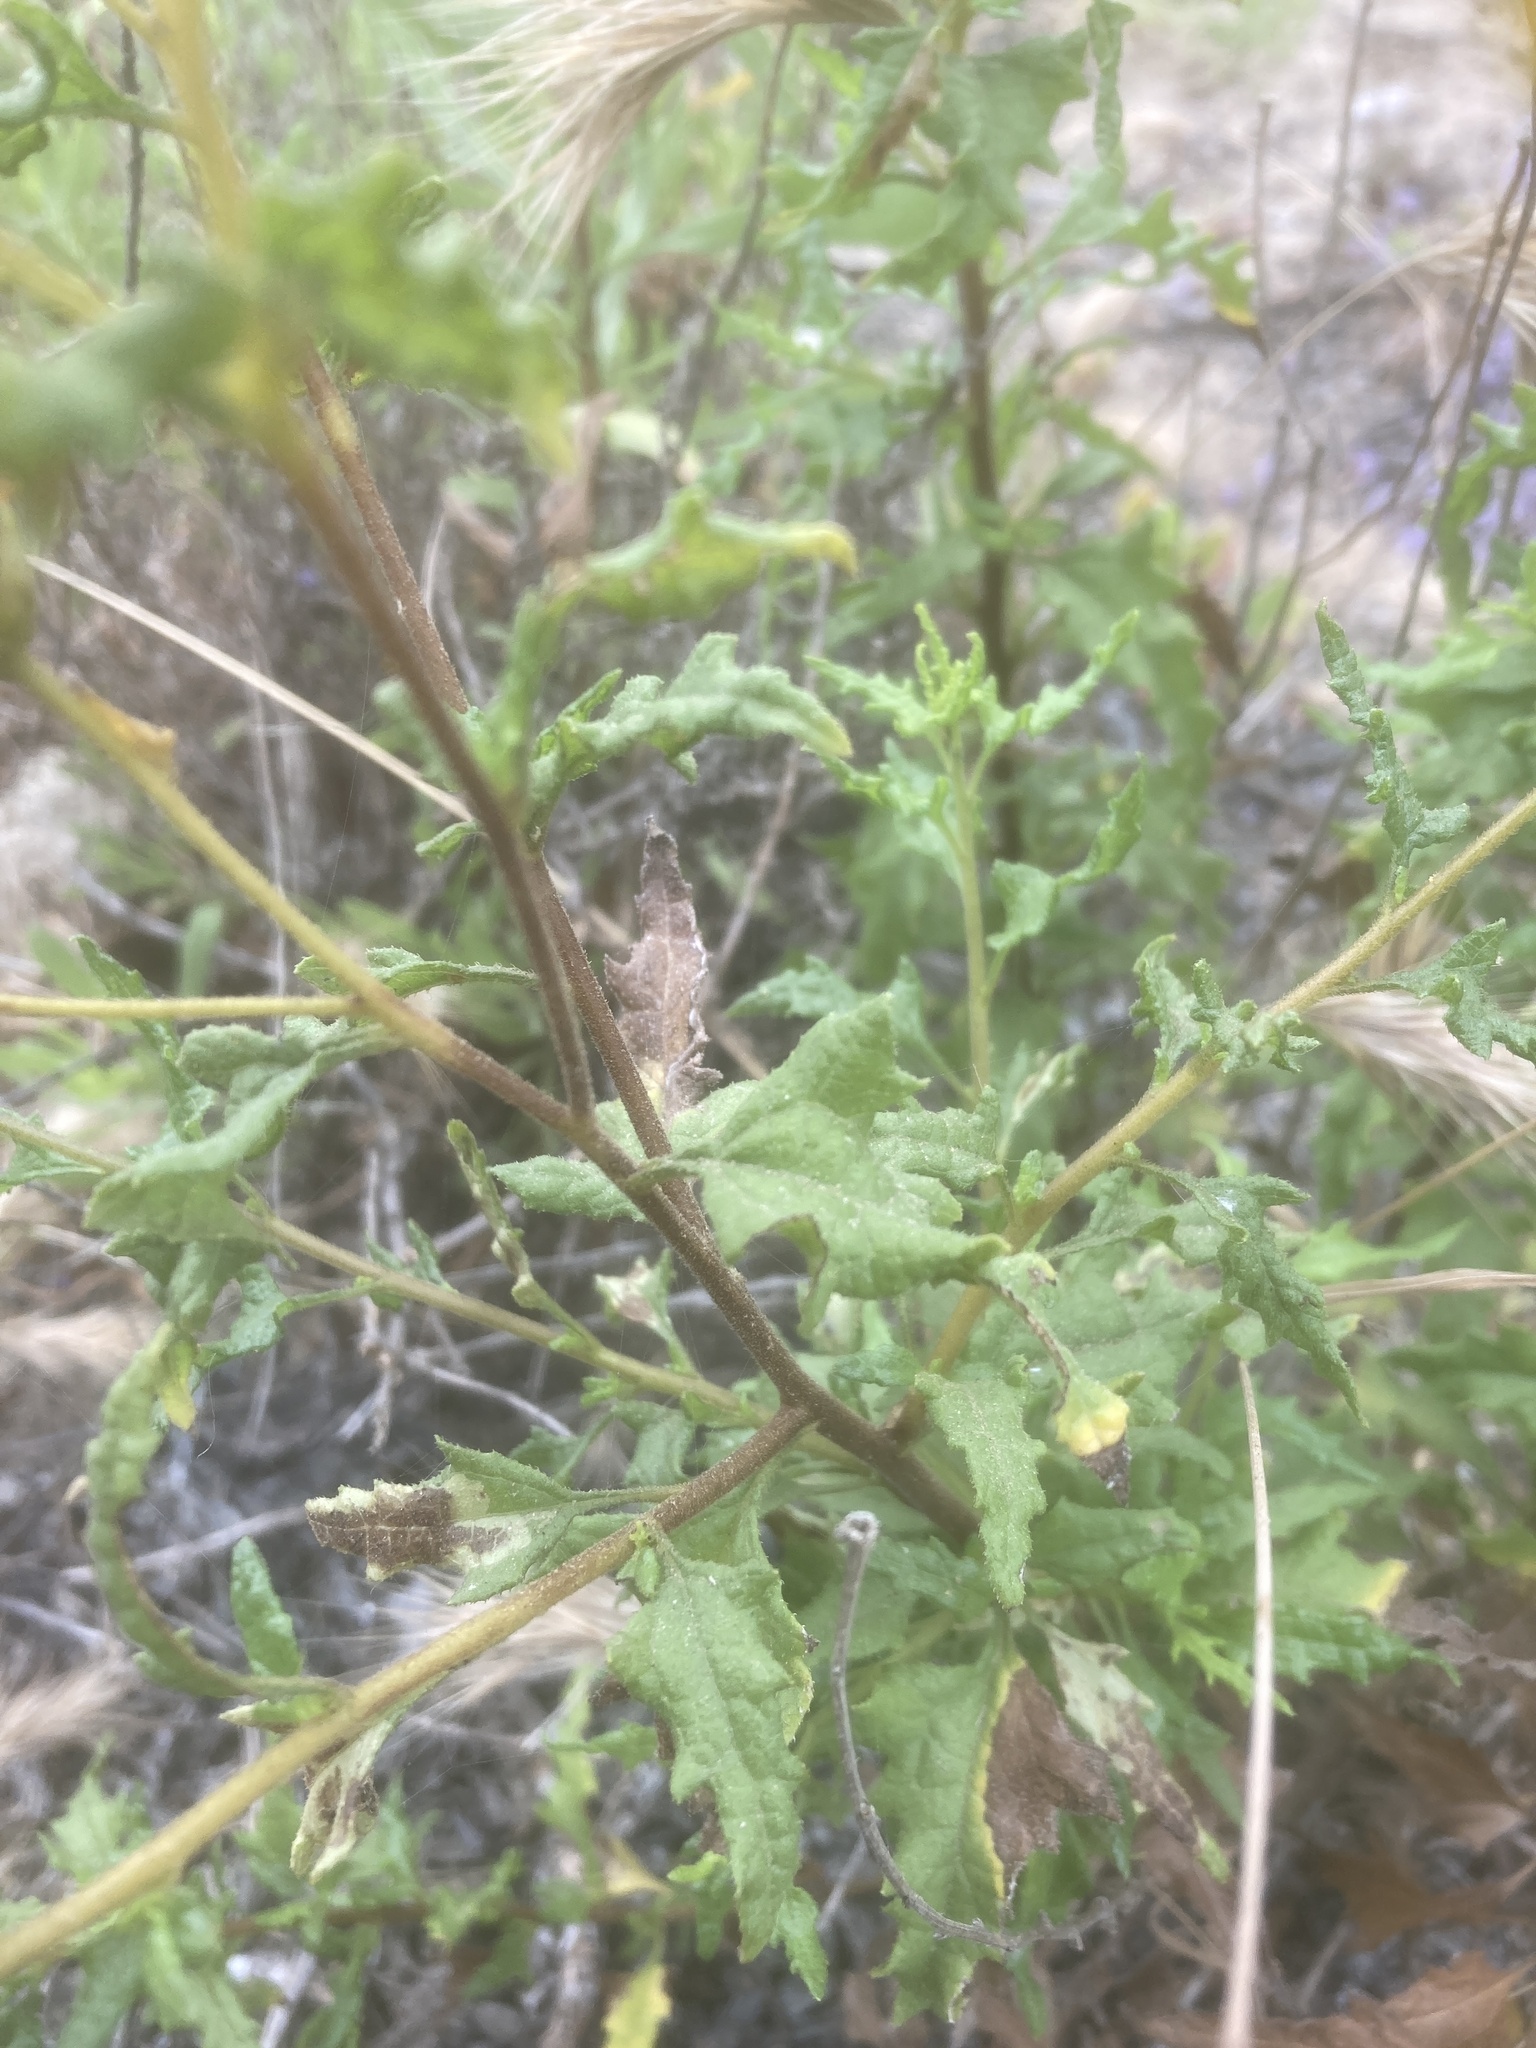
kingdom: Plantae
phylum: Tracheophyta
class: Magnoliopsida
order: Asterales
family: Asteraceae
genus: Bahiopsis
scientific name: Bahiopsis laciniata
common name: San diego county viguiera
